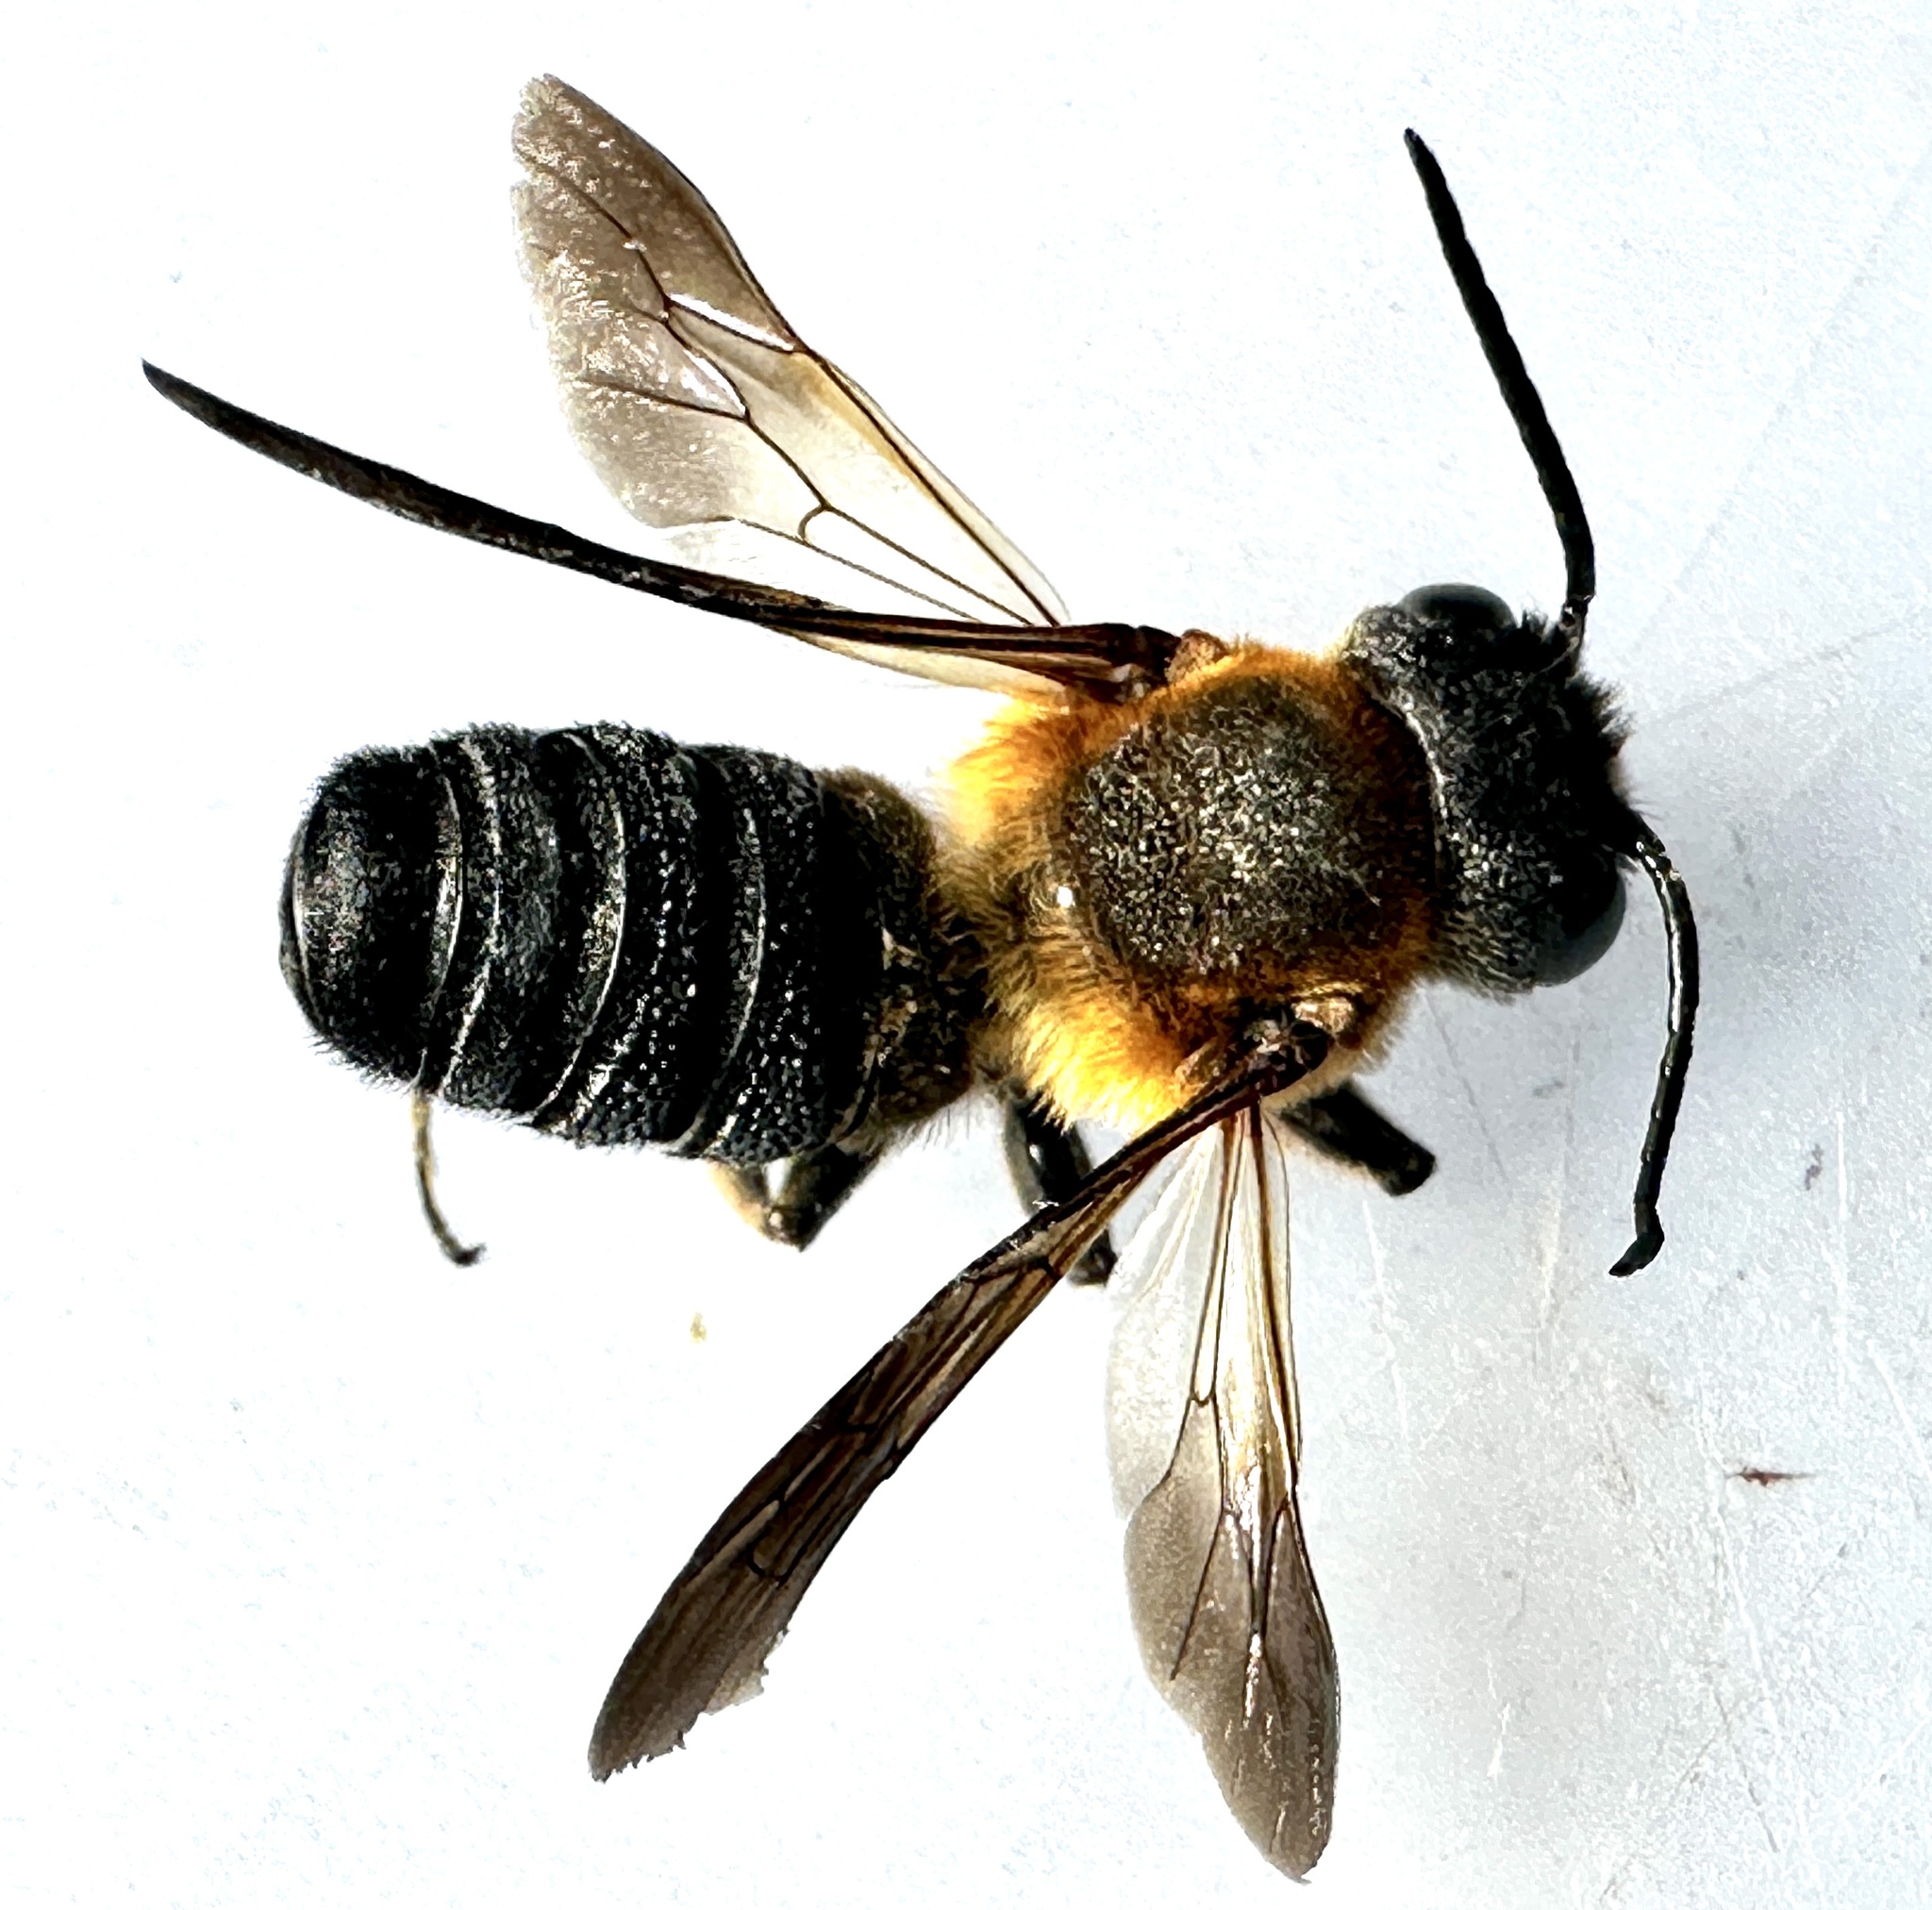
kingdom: Animalia
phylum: Arthropoda
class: Insecta
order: Hymenoptera
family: Megachilidae
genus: Megachile
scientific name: Megachile sculpturalis
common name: Sculptured resin bee
